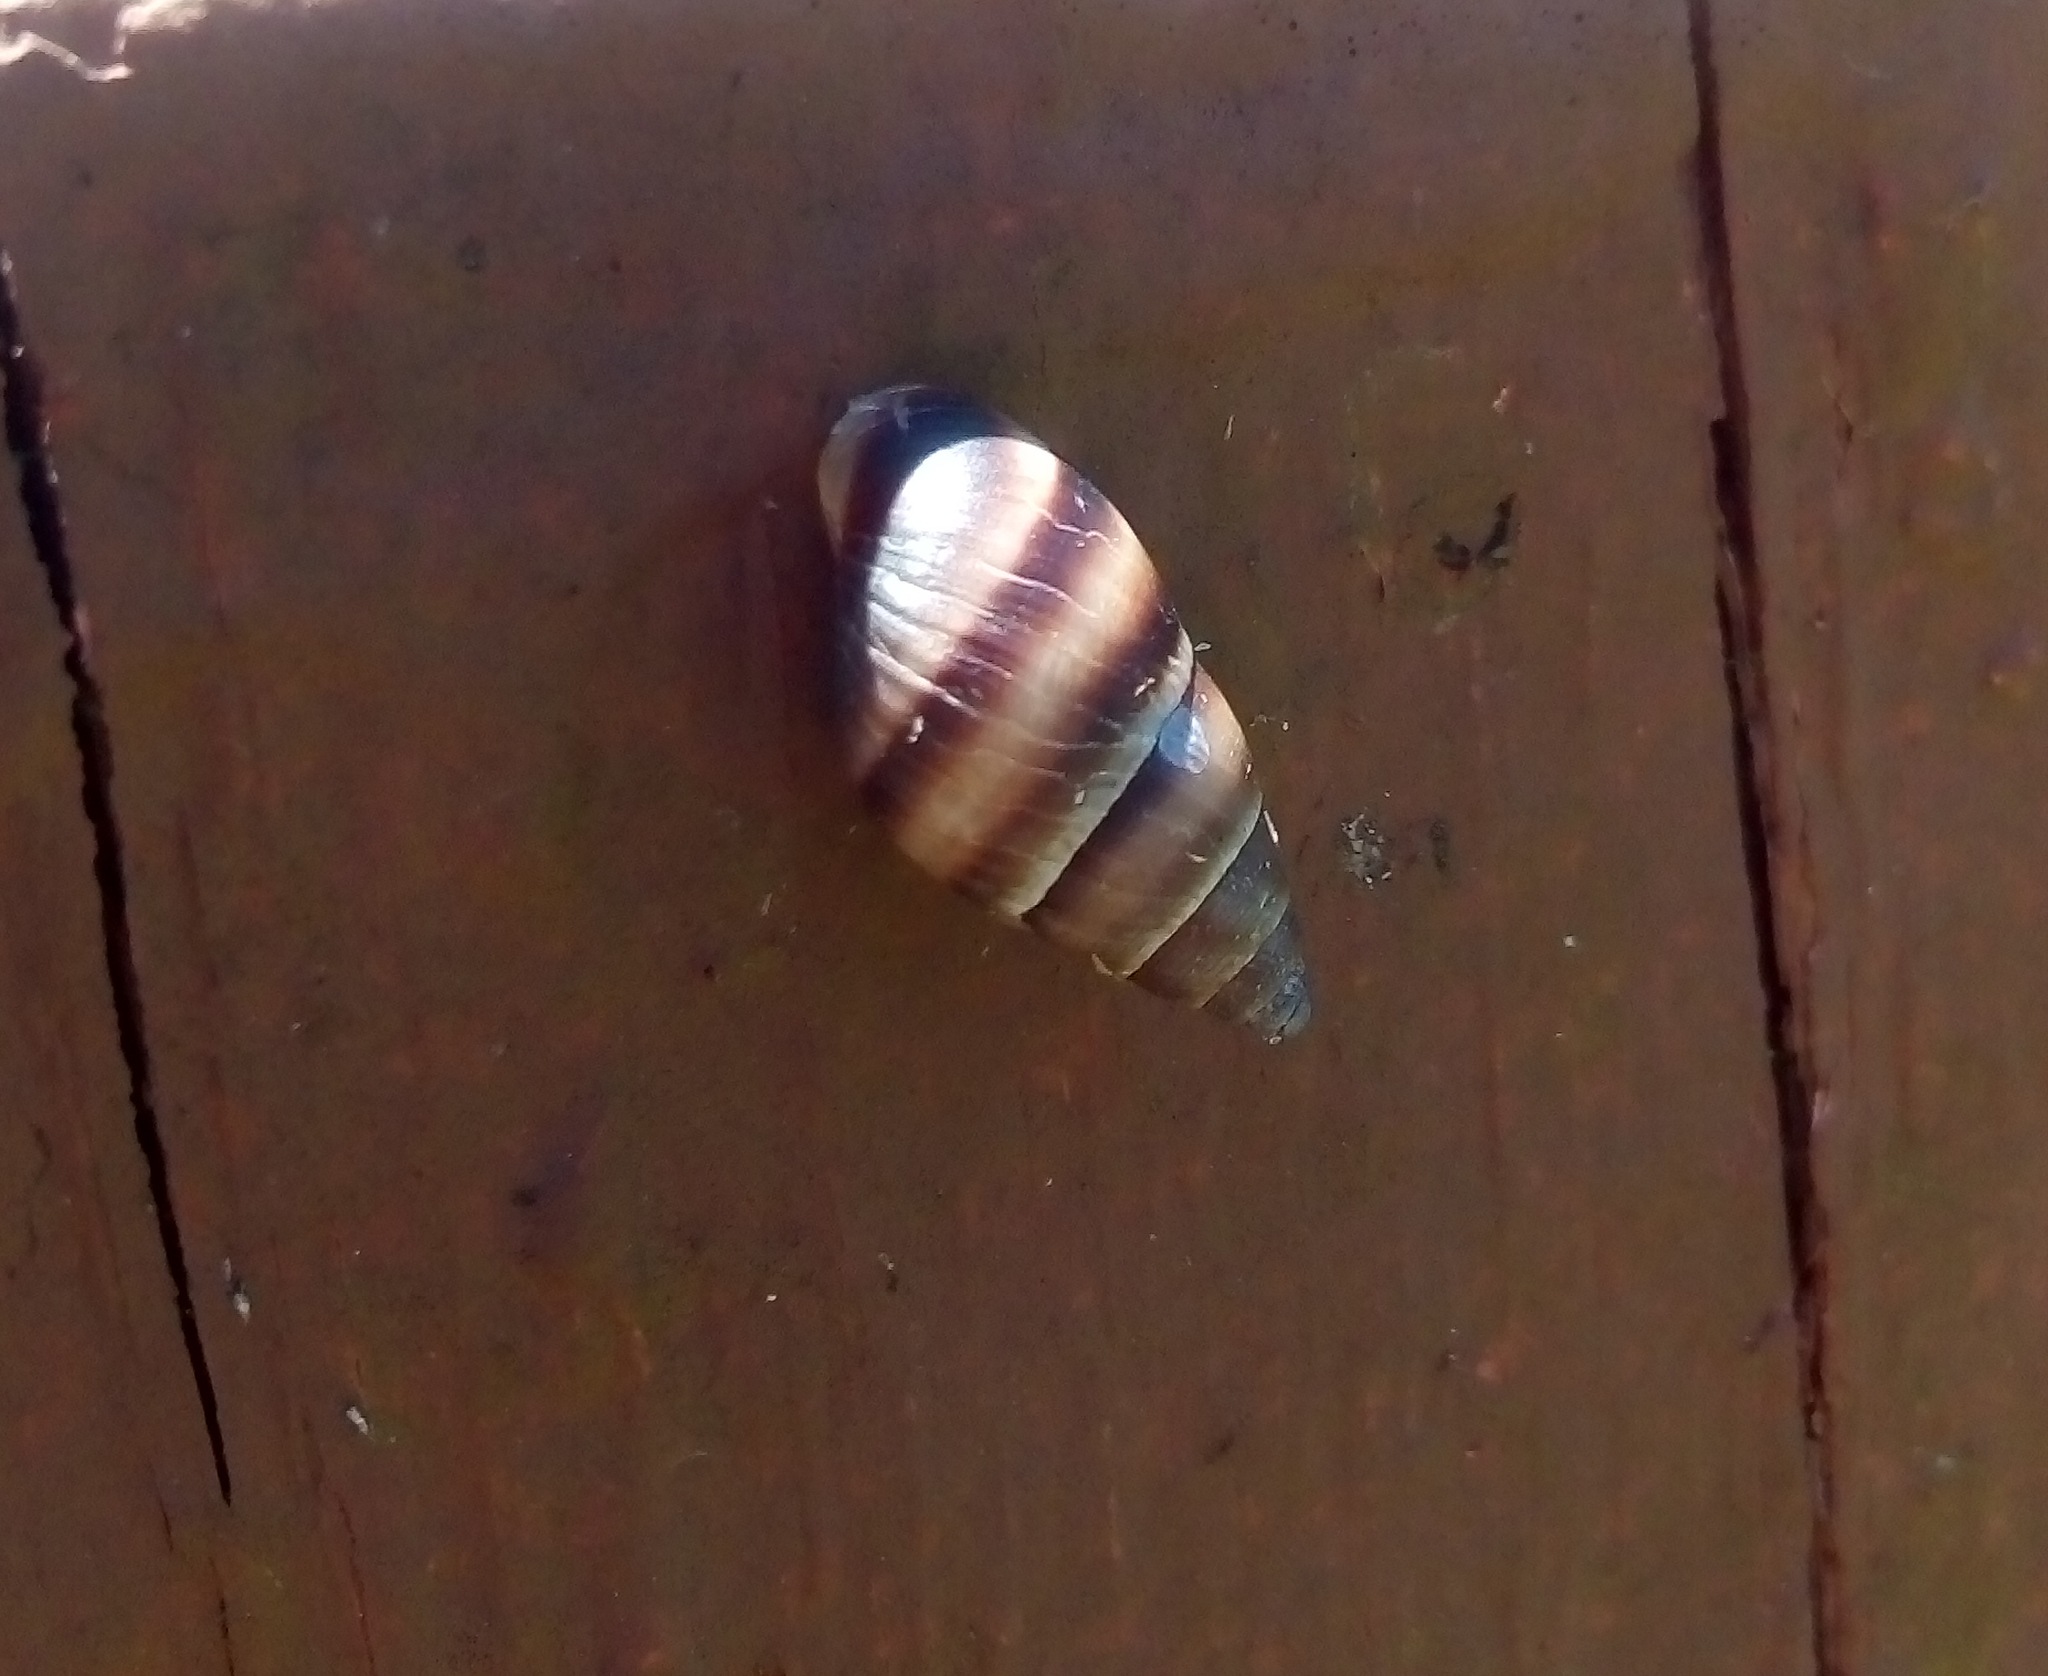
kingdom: Animalia
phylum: Mollusca
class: Gastropoda
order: Stylommatophora
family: Bulimulidae
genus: Bulimulus
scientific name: Bulimulus guadalupensis
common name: West indian bulimulus
